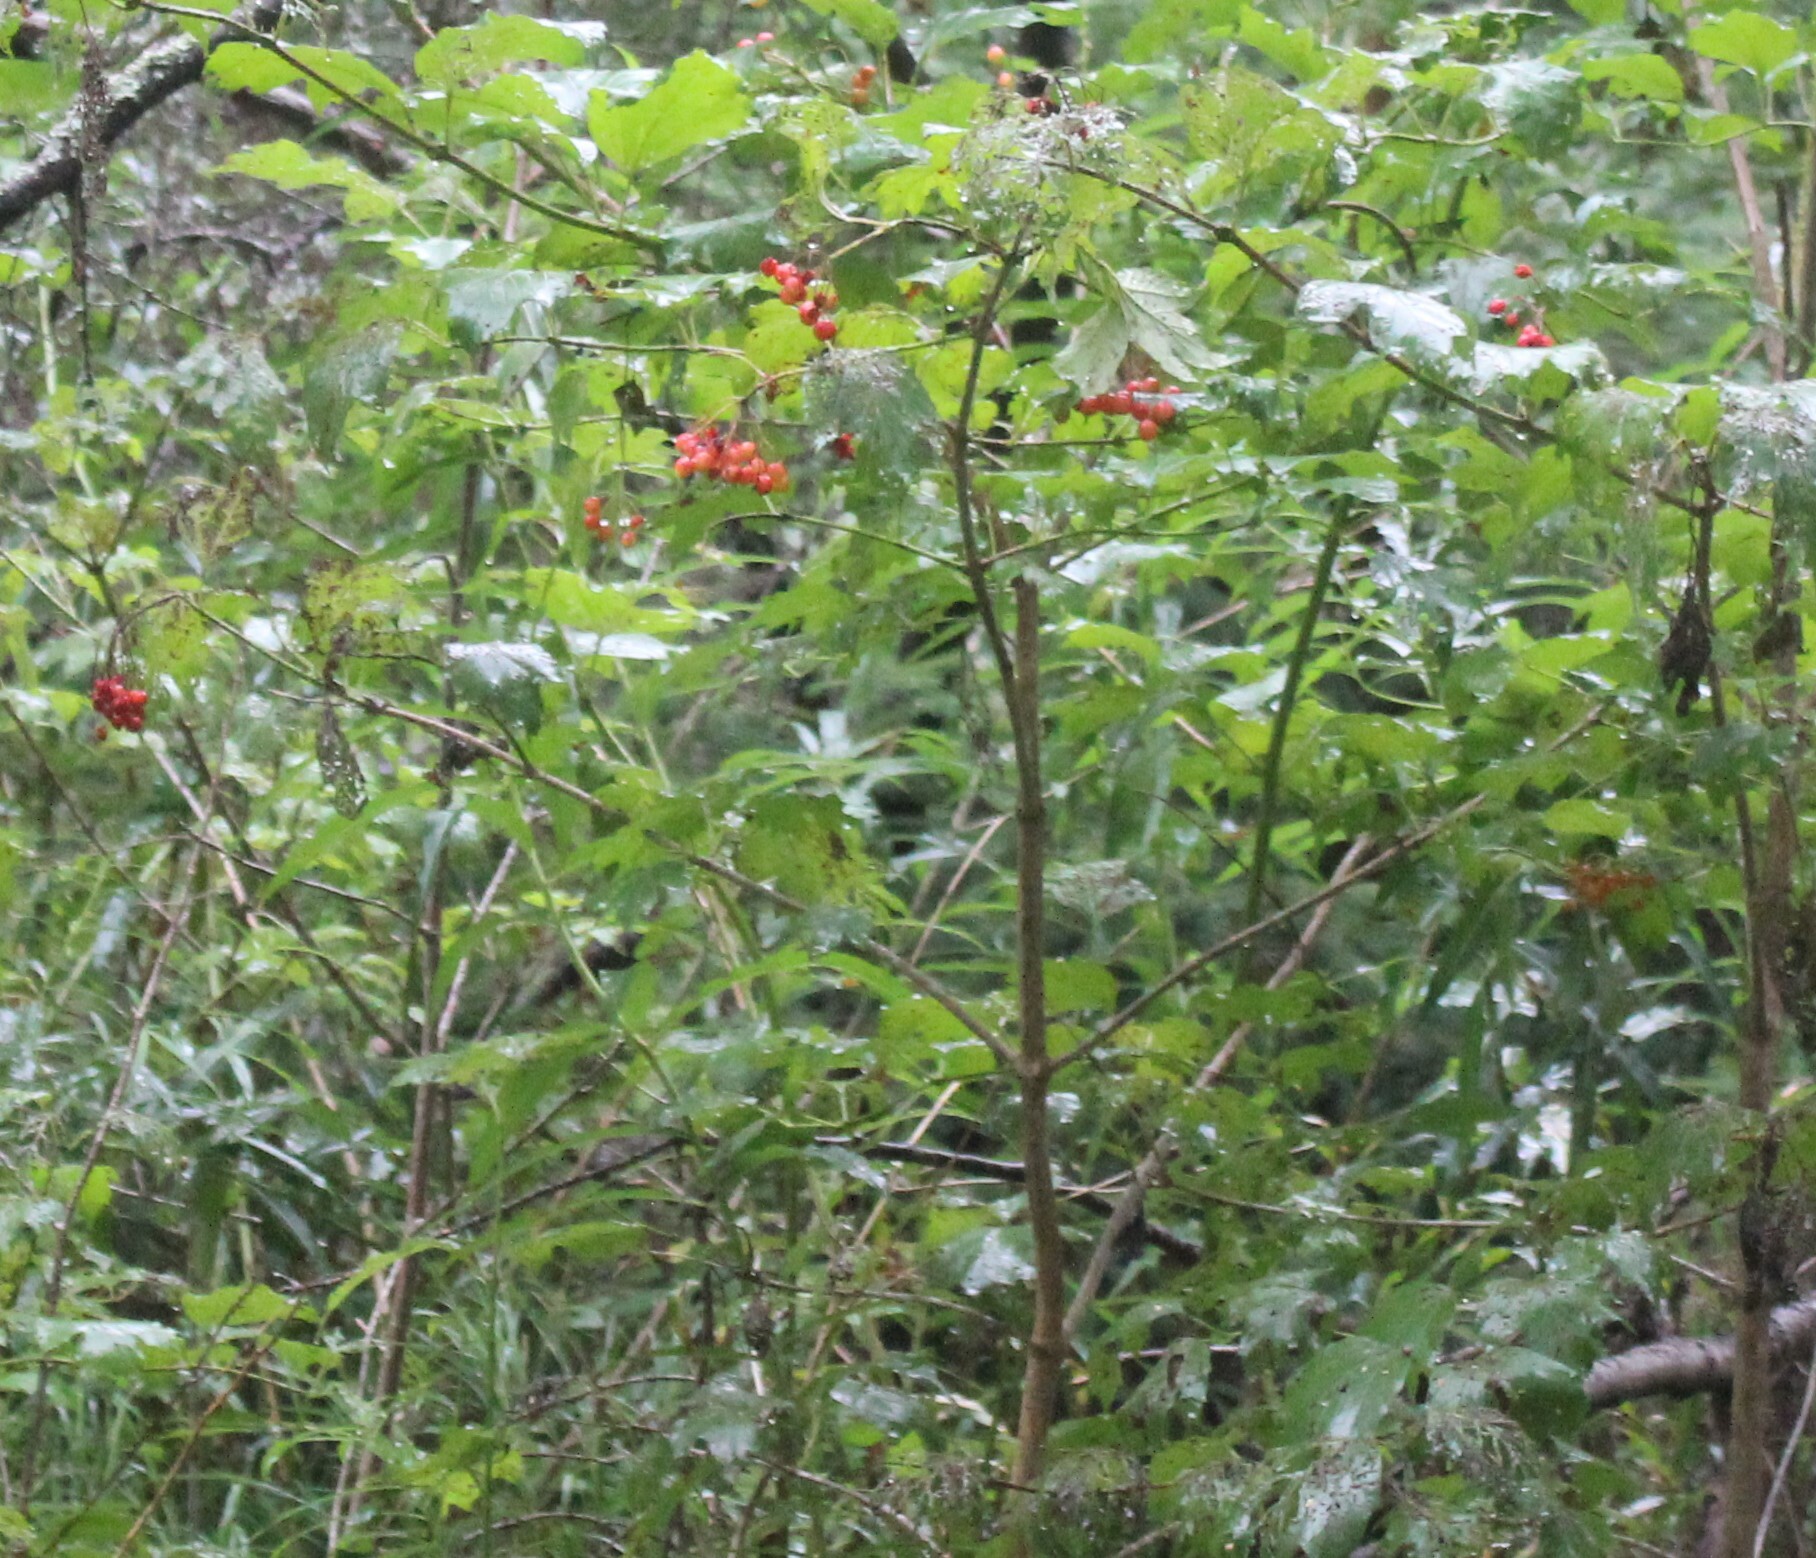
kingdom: Plantae
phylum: Tracheophyta
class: Magnoliopsida
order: Dipsacales
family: Viburnaceae
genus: Viburnum
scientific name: Viburnum opulus
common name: Guelder-rose
